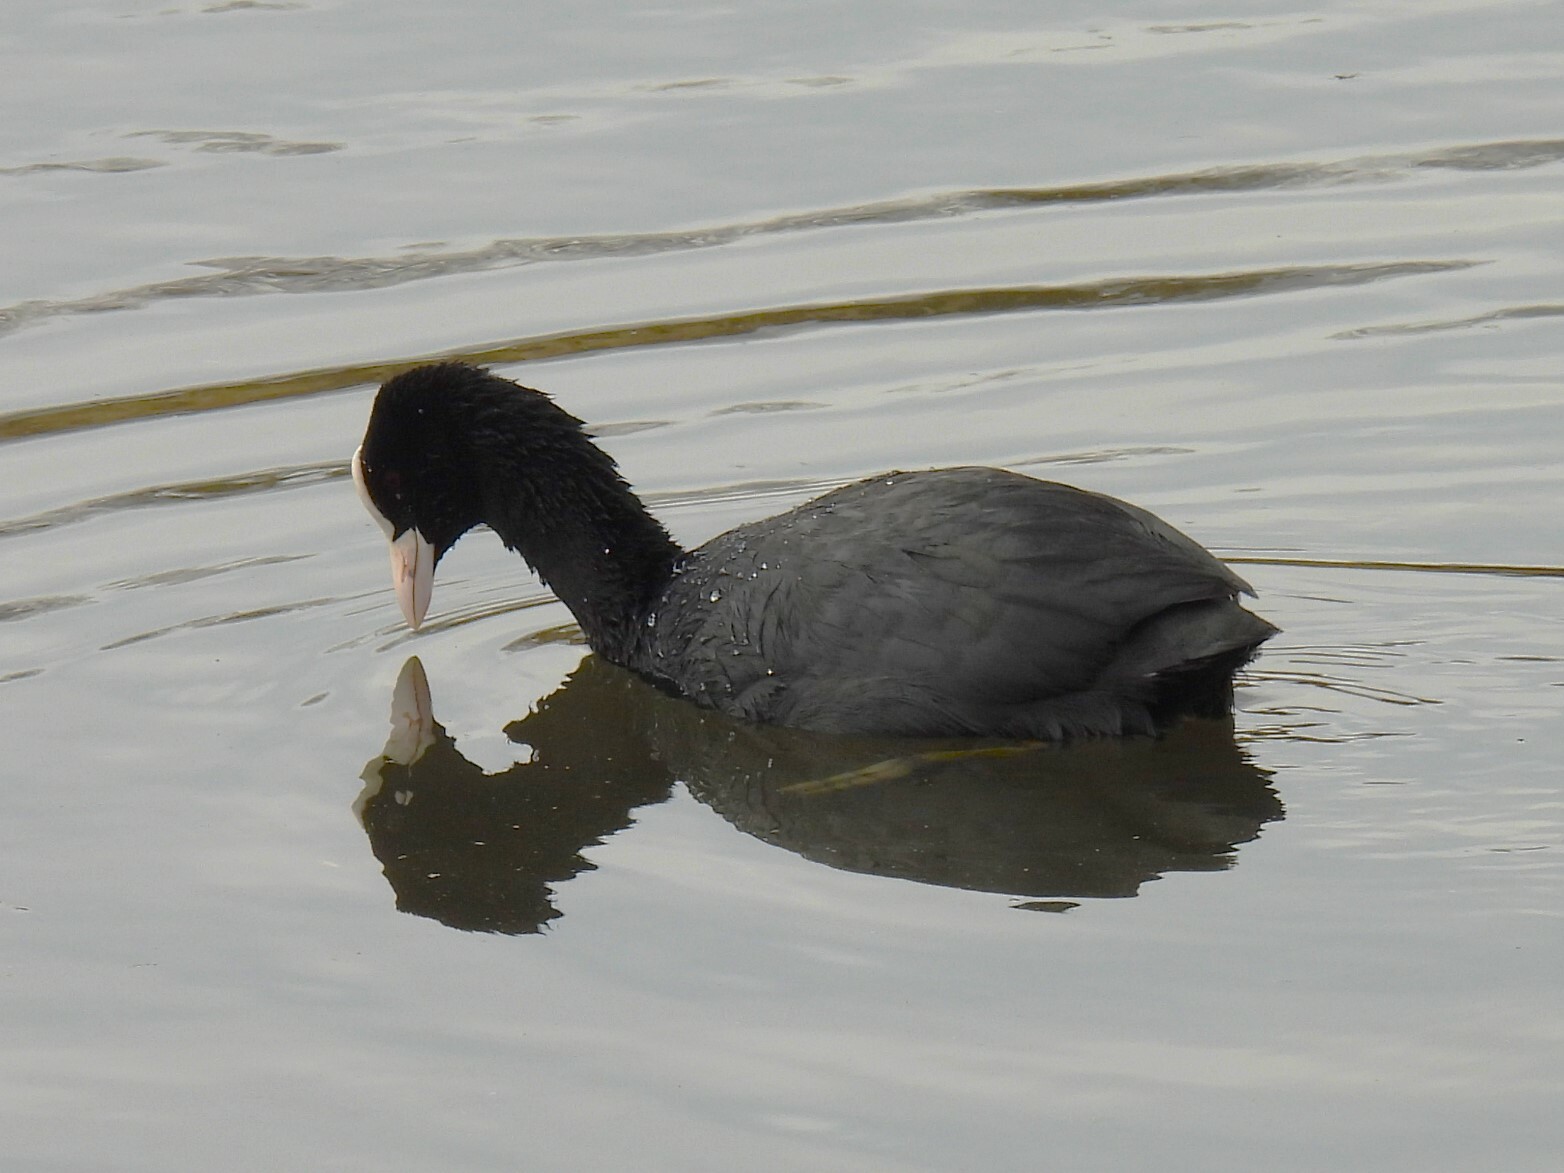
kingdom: Animalia
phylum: Chordata
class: Aves
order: Gruiformes
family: Rallidae
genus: Fulica
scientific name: Fulica atra
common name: Eurasian coot
